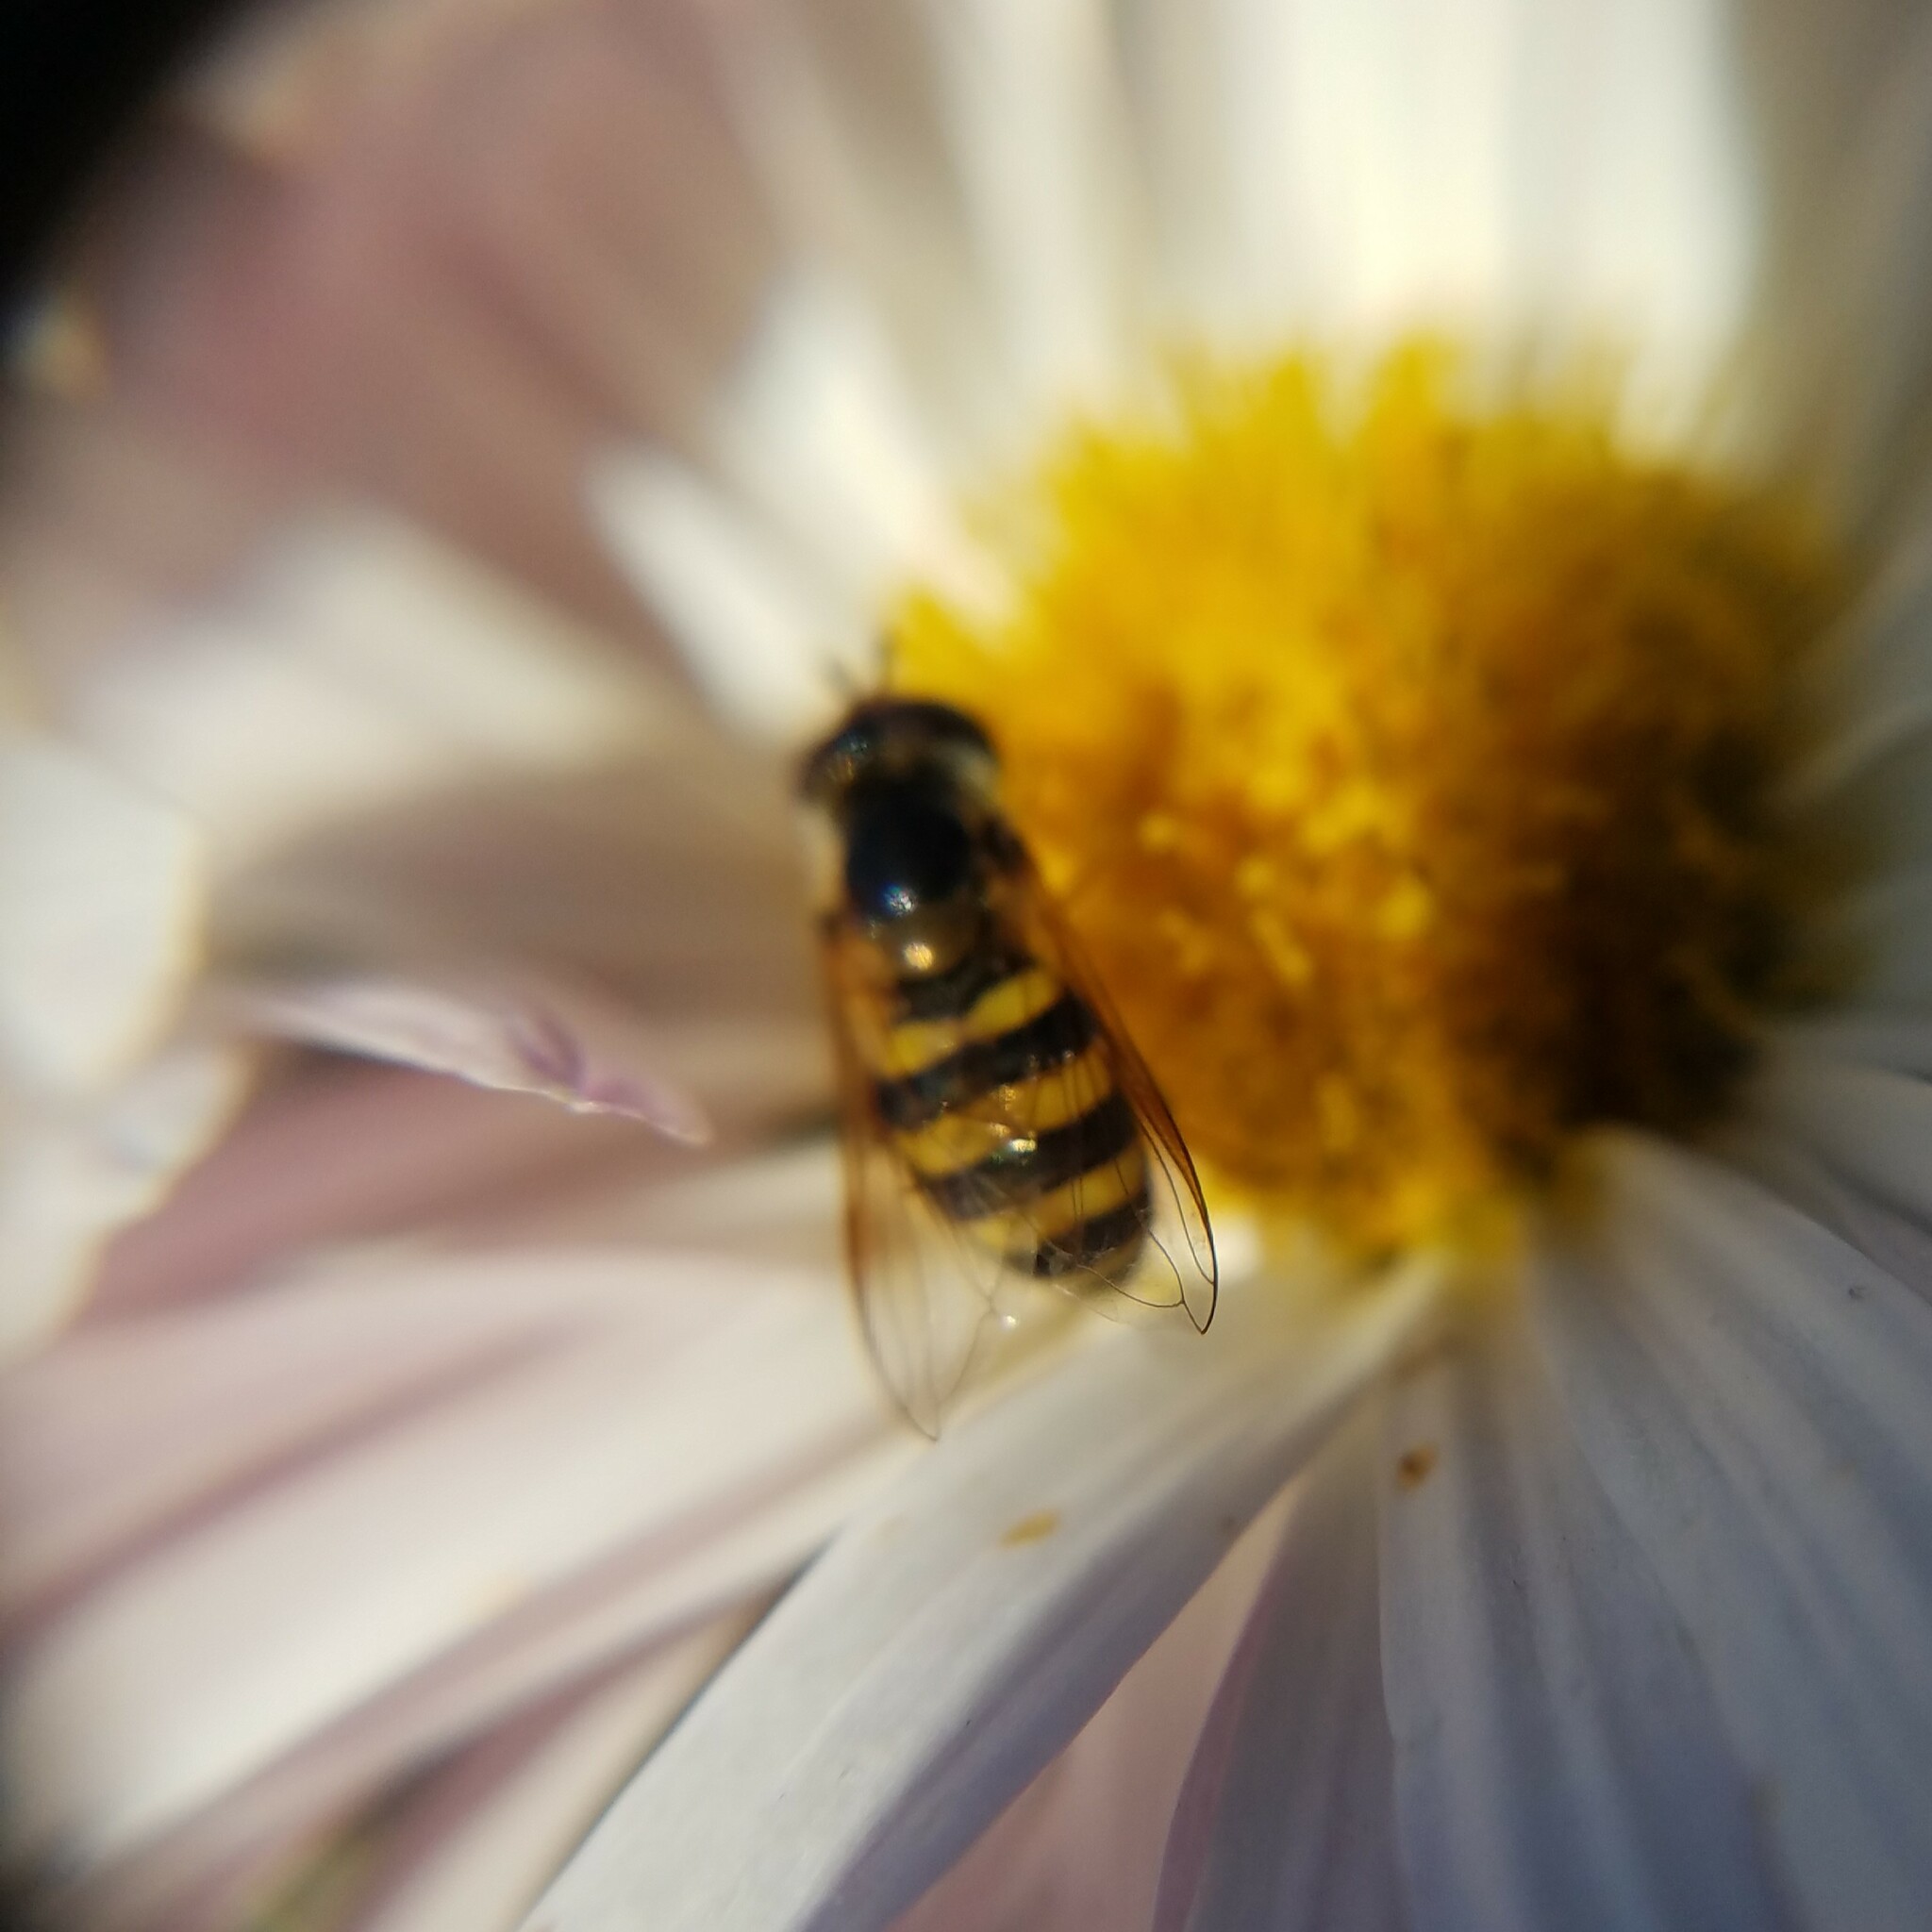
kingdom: Animalia
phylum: Arthropoda
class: Insecta
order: Diptera
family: Syrphidae
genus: Eupeodes
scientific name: Eupeodes
